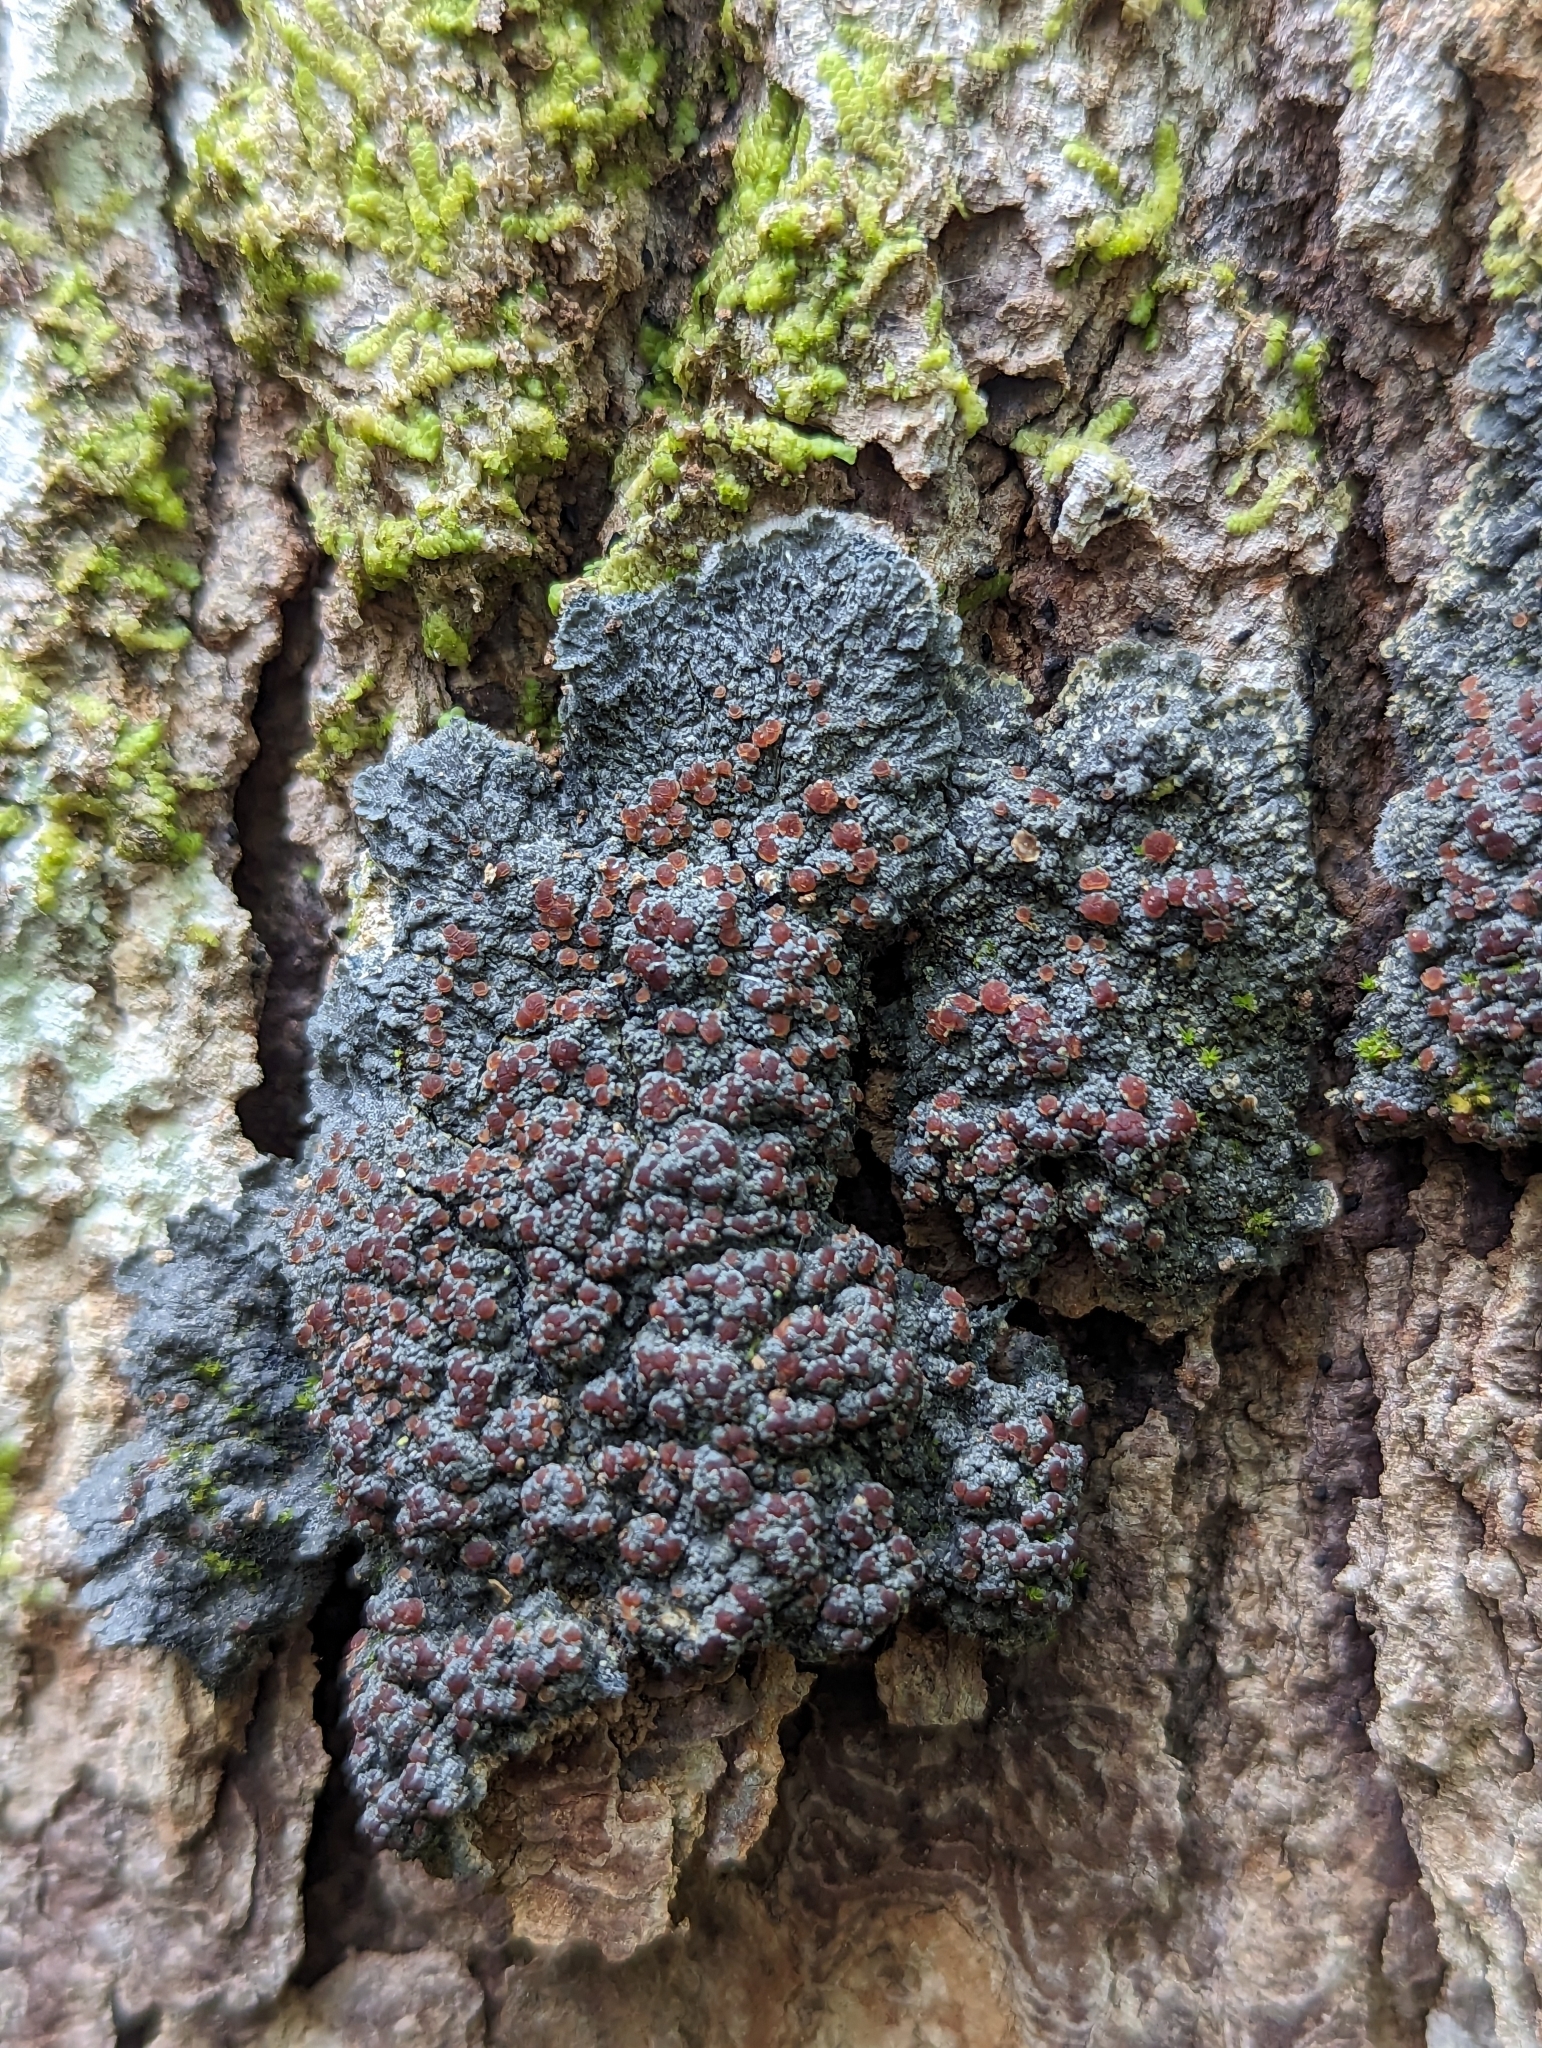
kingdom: Fungi
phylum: Ascomycota
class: Lecanoromycetes
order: Peltigerales
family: Pannariaceae
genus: Pectenia
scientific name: Pectenia plumbea
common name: Bladder stalks
